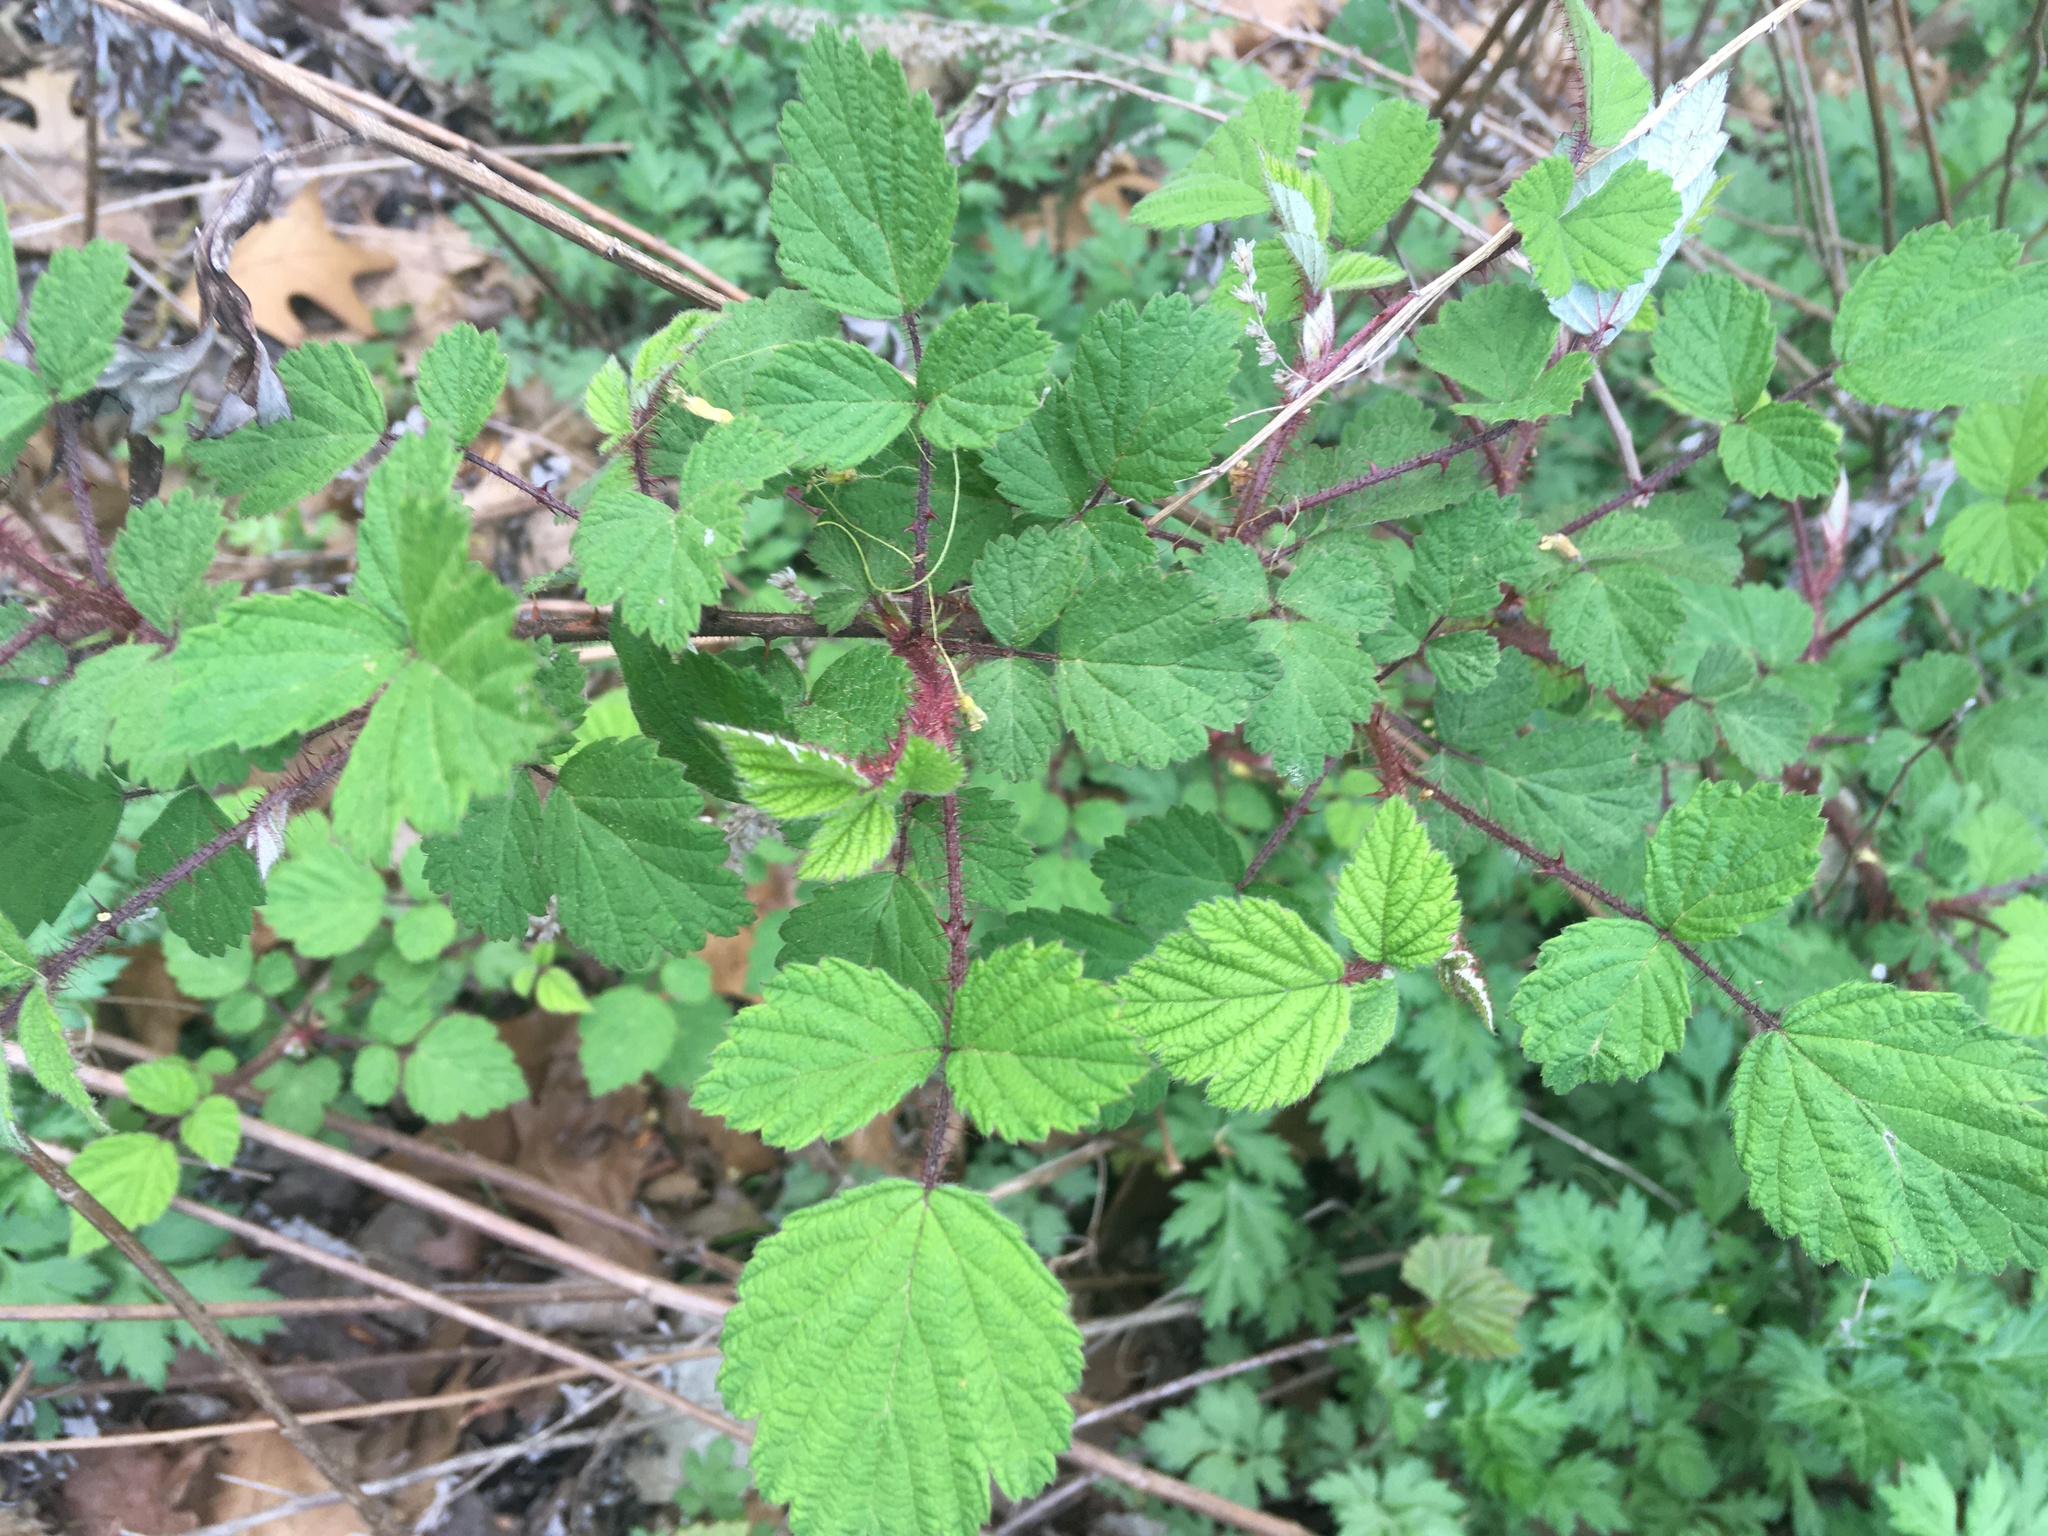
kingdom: Plantae
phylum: Tracheophyta
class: Magnoliopsida
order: Rosales
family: Rosaceae
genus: Rubus
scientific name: Rubus phoenicolasius
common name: Japanese wineberry
